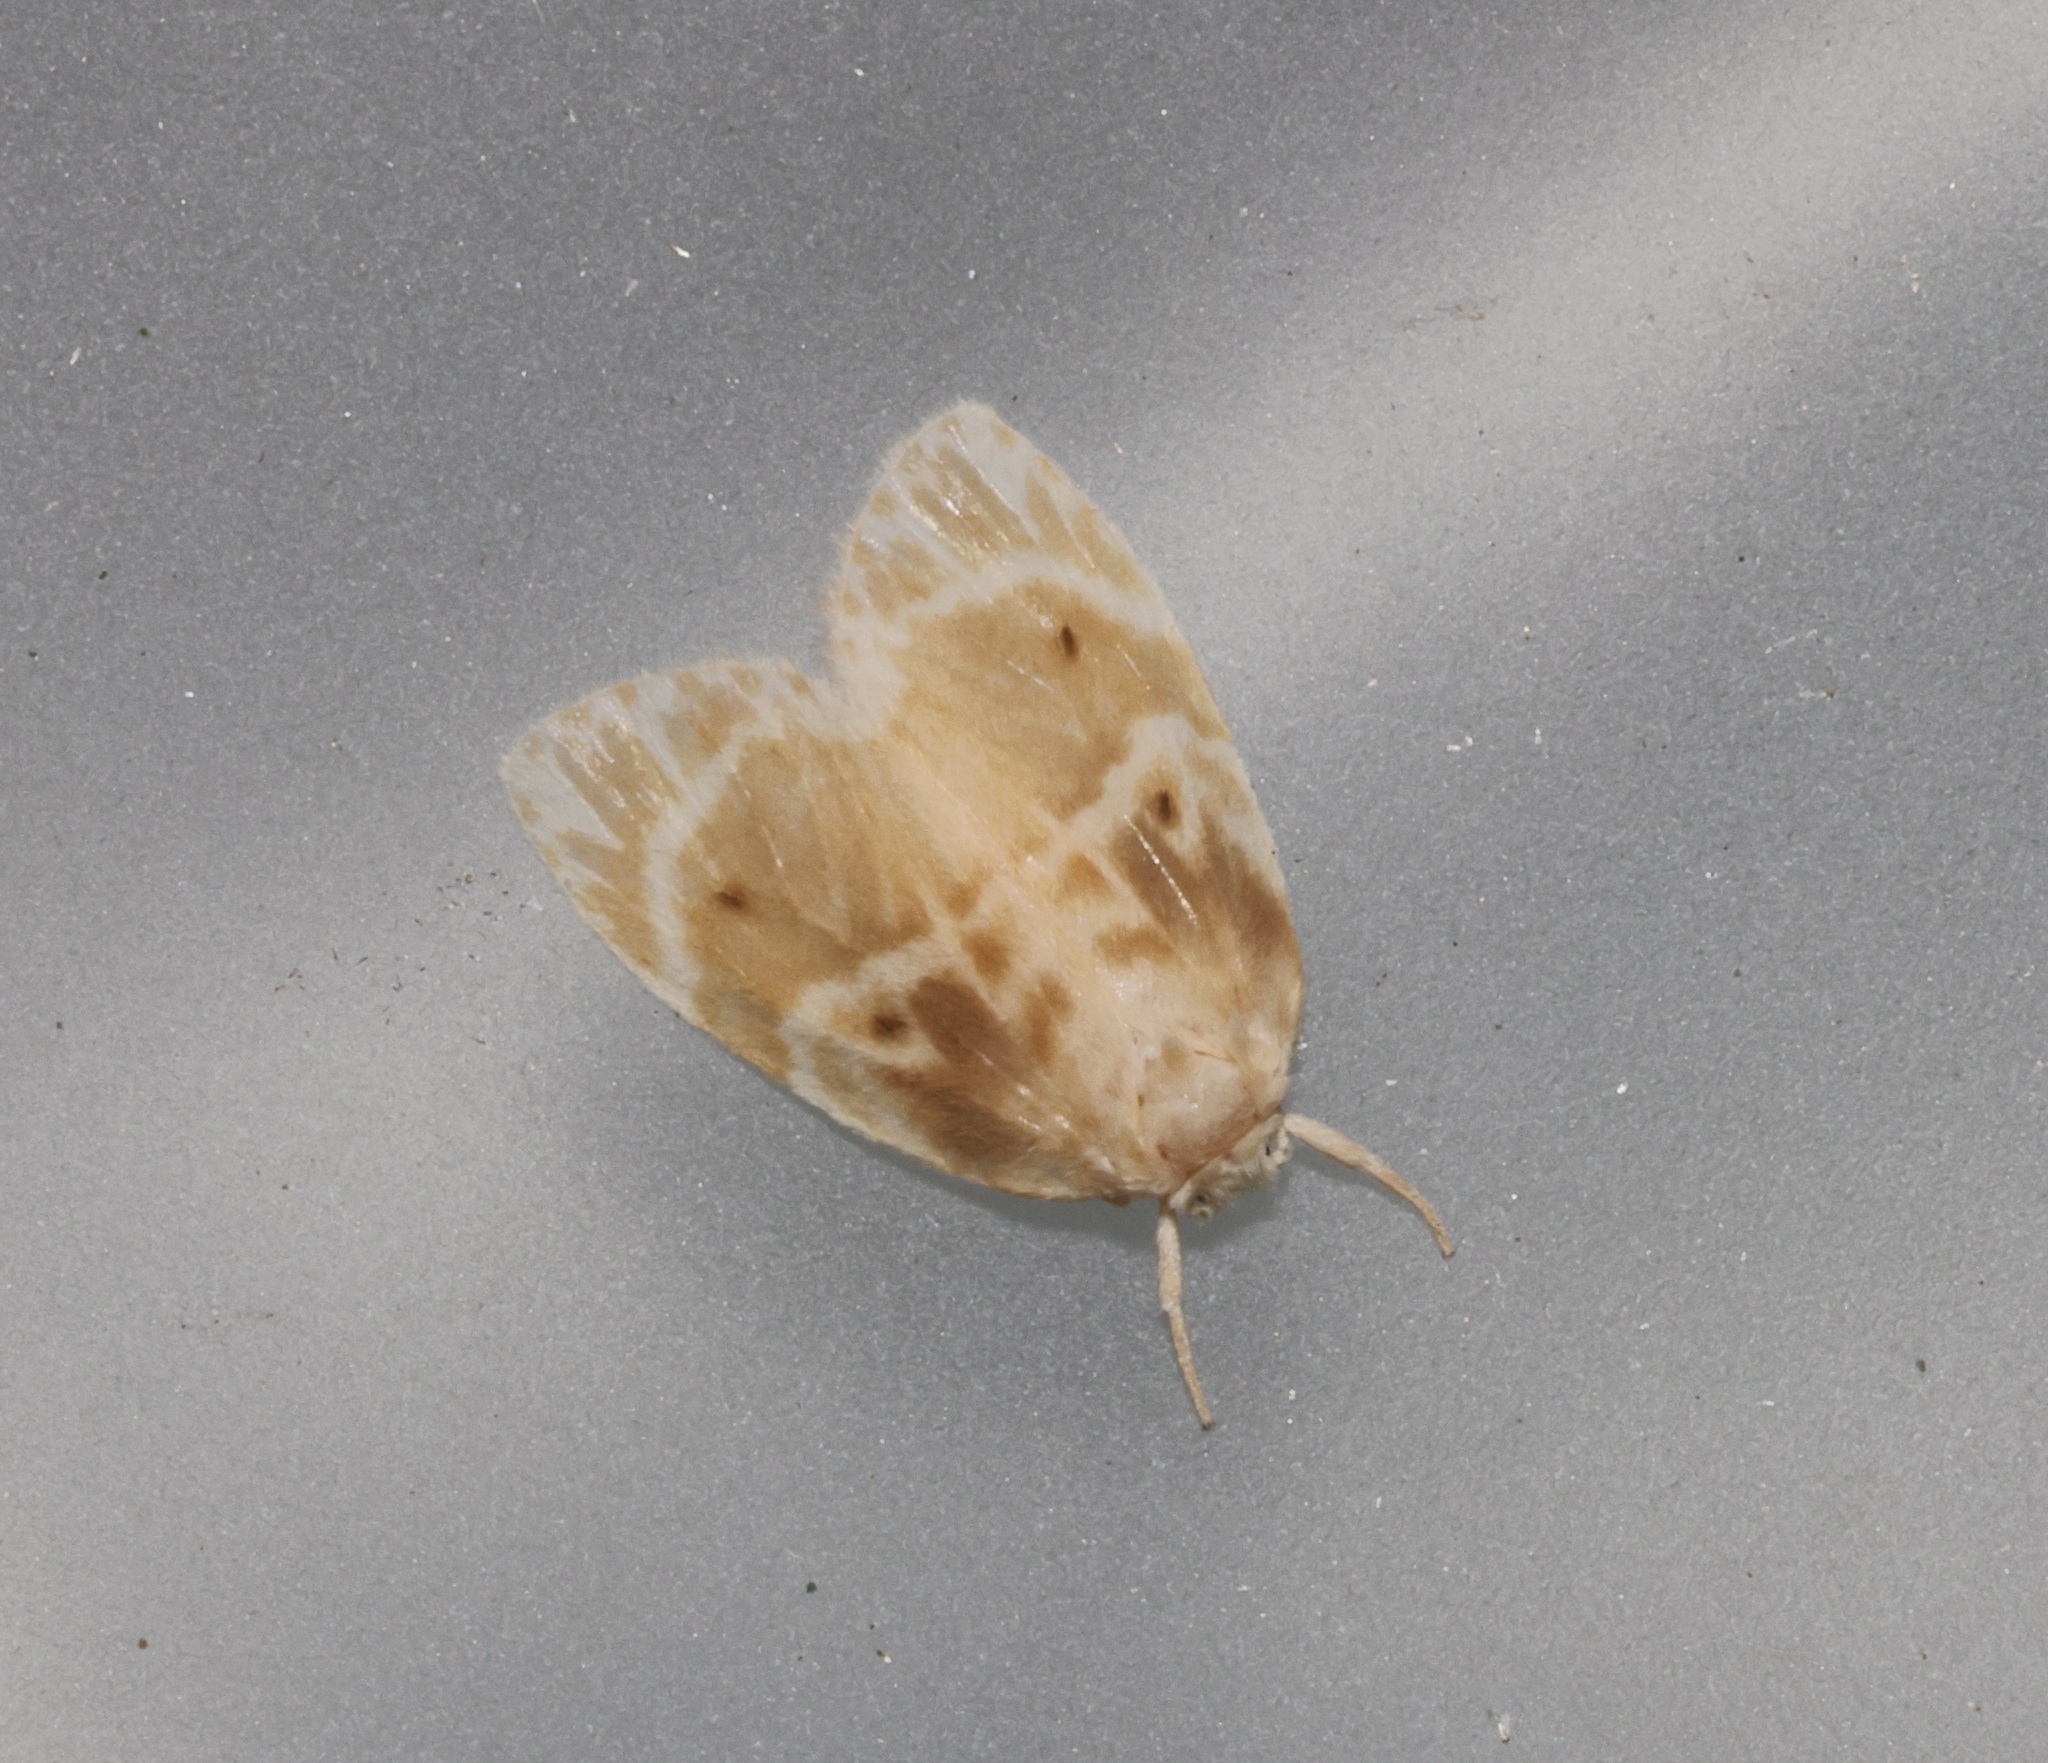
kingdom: Animalia
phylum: Arthropoda
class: Insecta
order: Lepidoptera
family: Erebidae
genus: Schistophleps
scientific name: Schistophleps bipuncta
